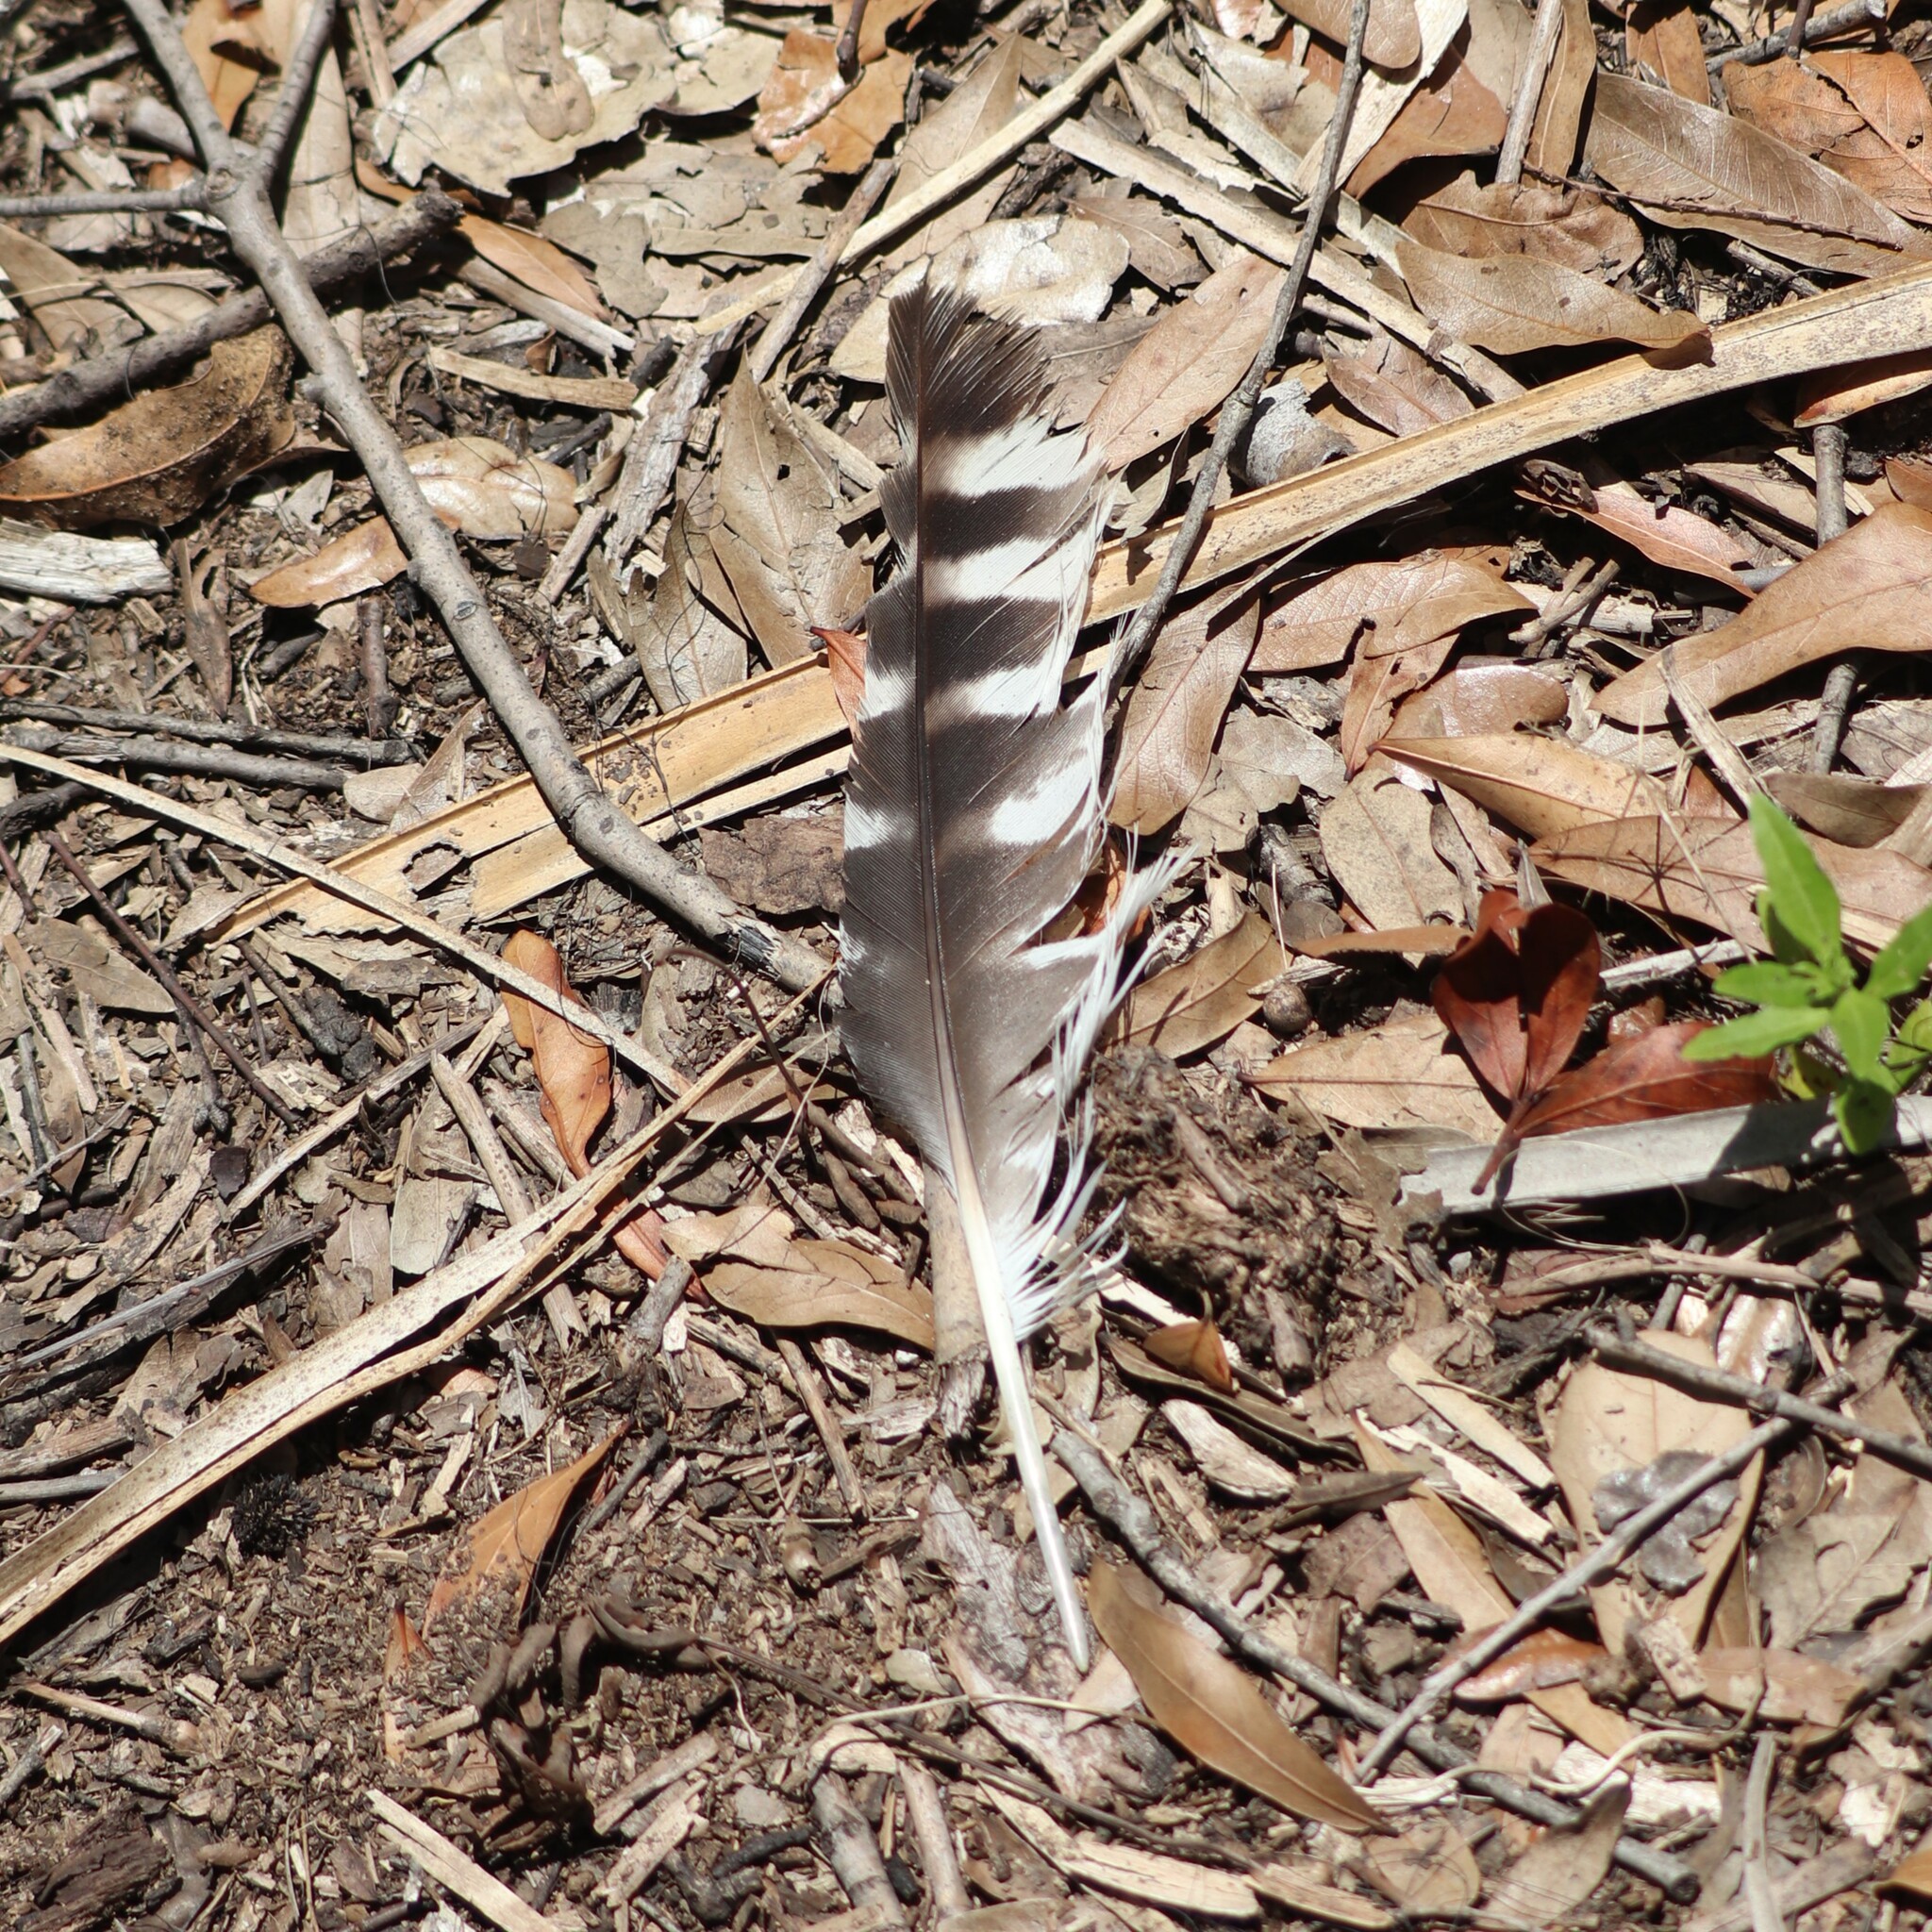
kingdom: Animalia
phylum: Chordata
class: Aves
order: Accipitriformes
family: Accipitridae
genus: Buteo
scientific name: Buteo lineatus
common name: Red-shouldered hawk
